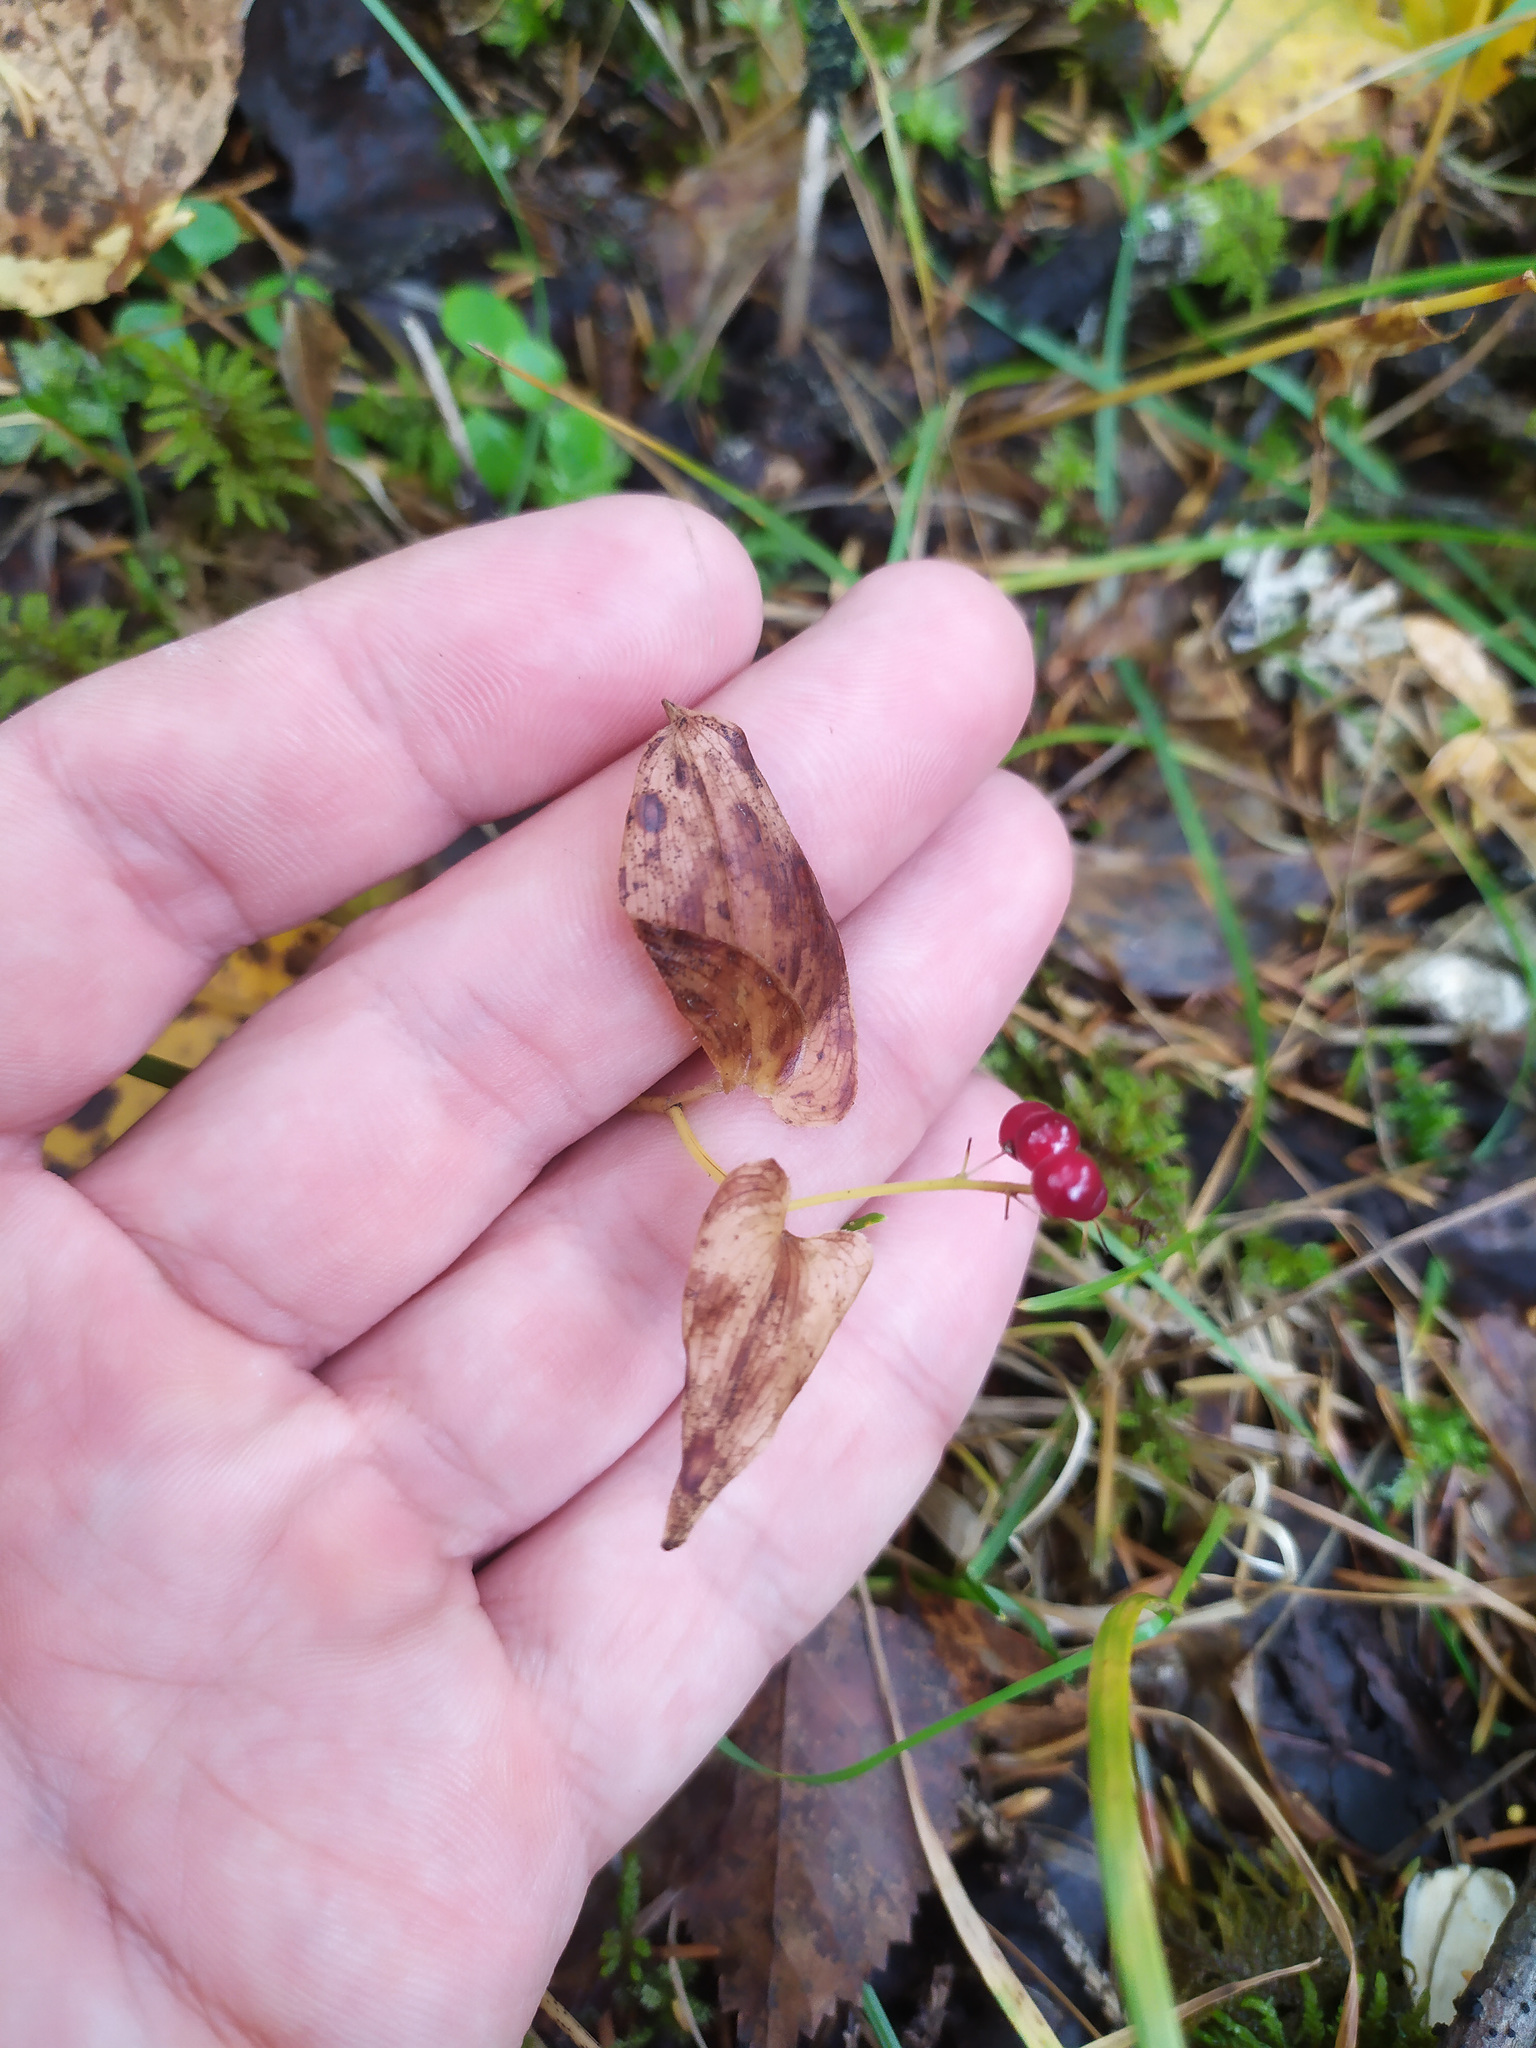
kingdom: Plantae
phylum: Tracheophyta
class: Liliopsida
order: Asparagales
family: Asparagaceae
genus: Maianthemum
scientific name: Maianthemum bifolium
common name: May lily
